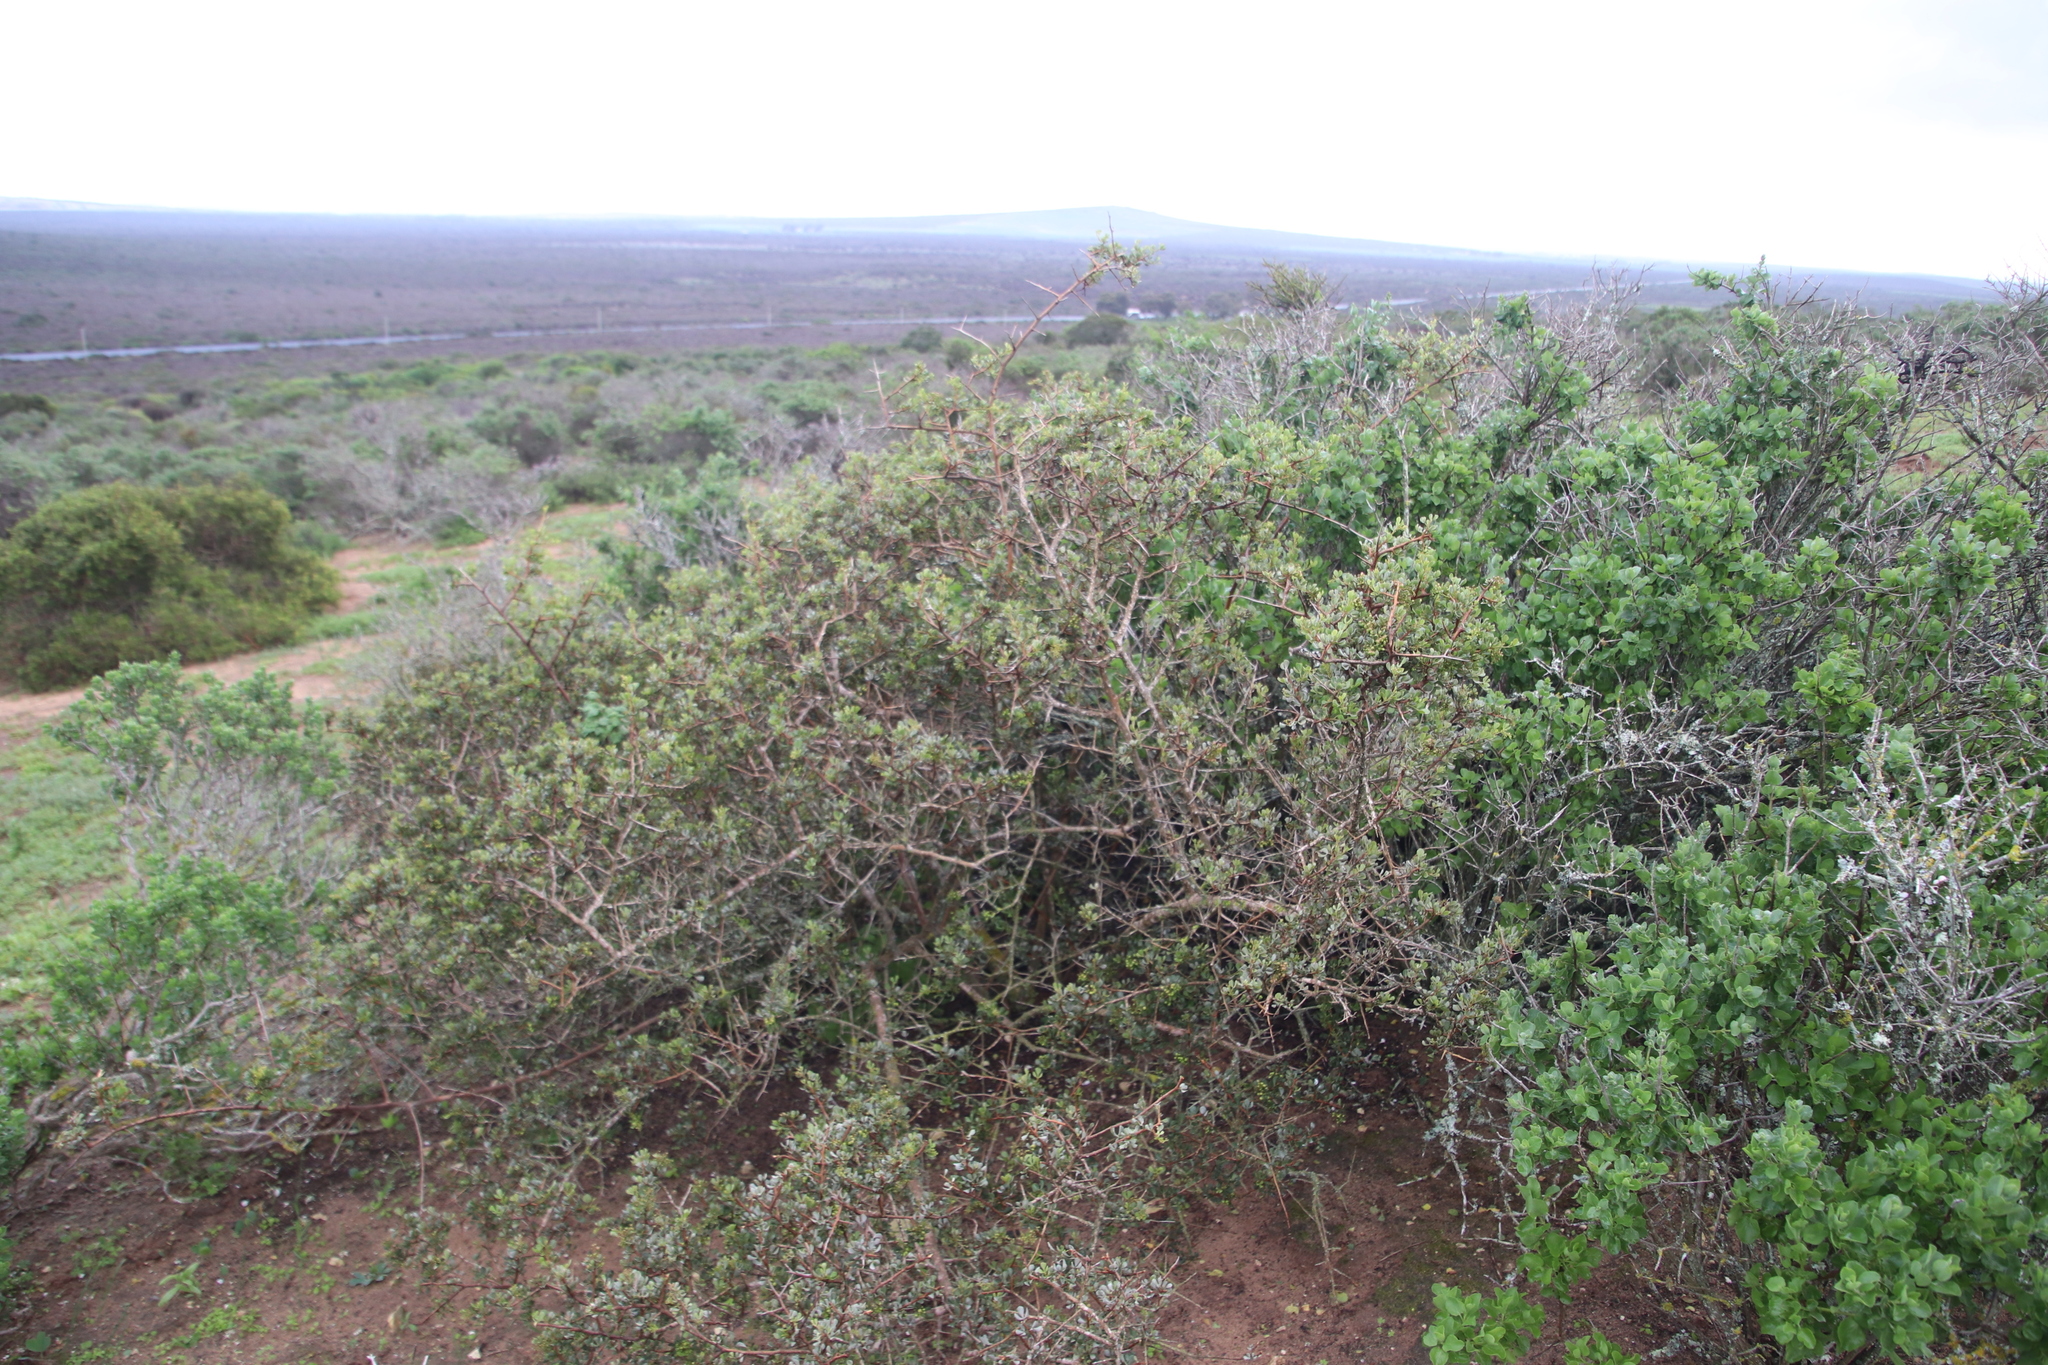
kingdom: Plantae
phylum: Tracheophyta
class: Magnoliopsida
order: Sapindales
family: Anacardiaceae
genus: Searsia
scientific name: Searsia glauca
